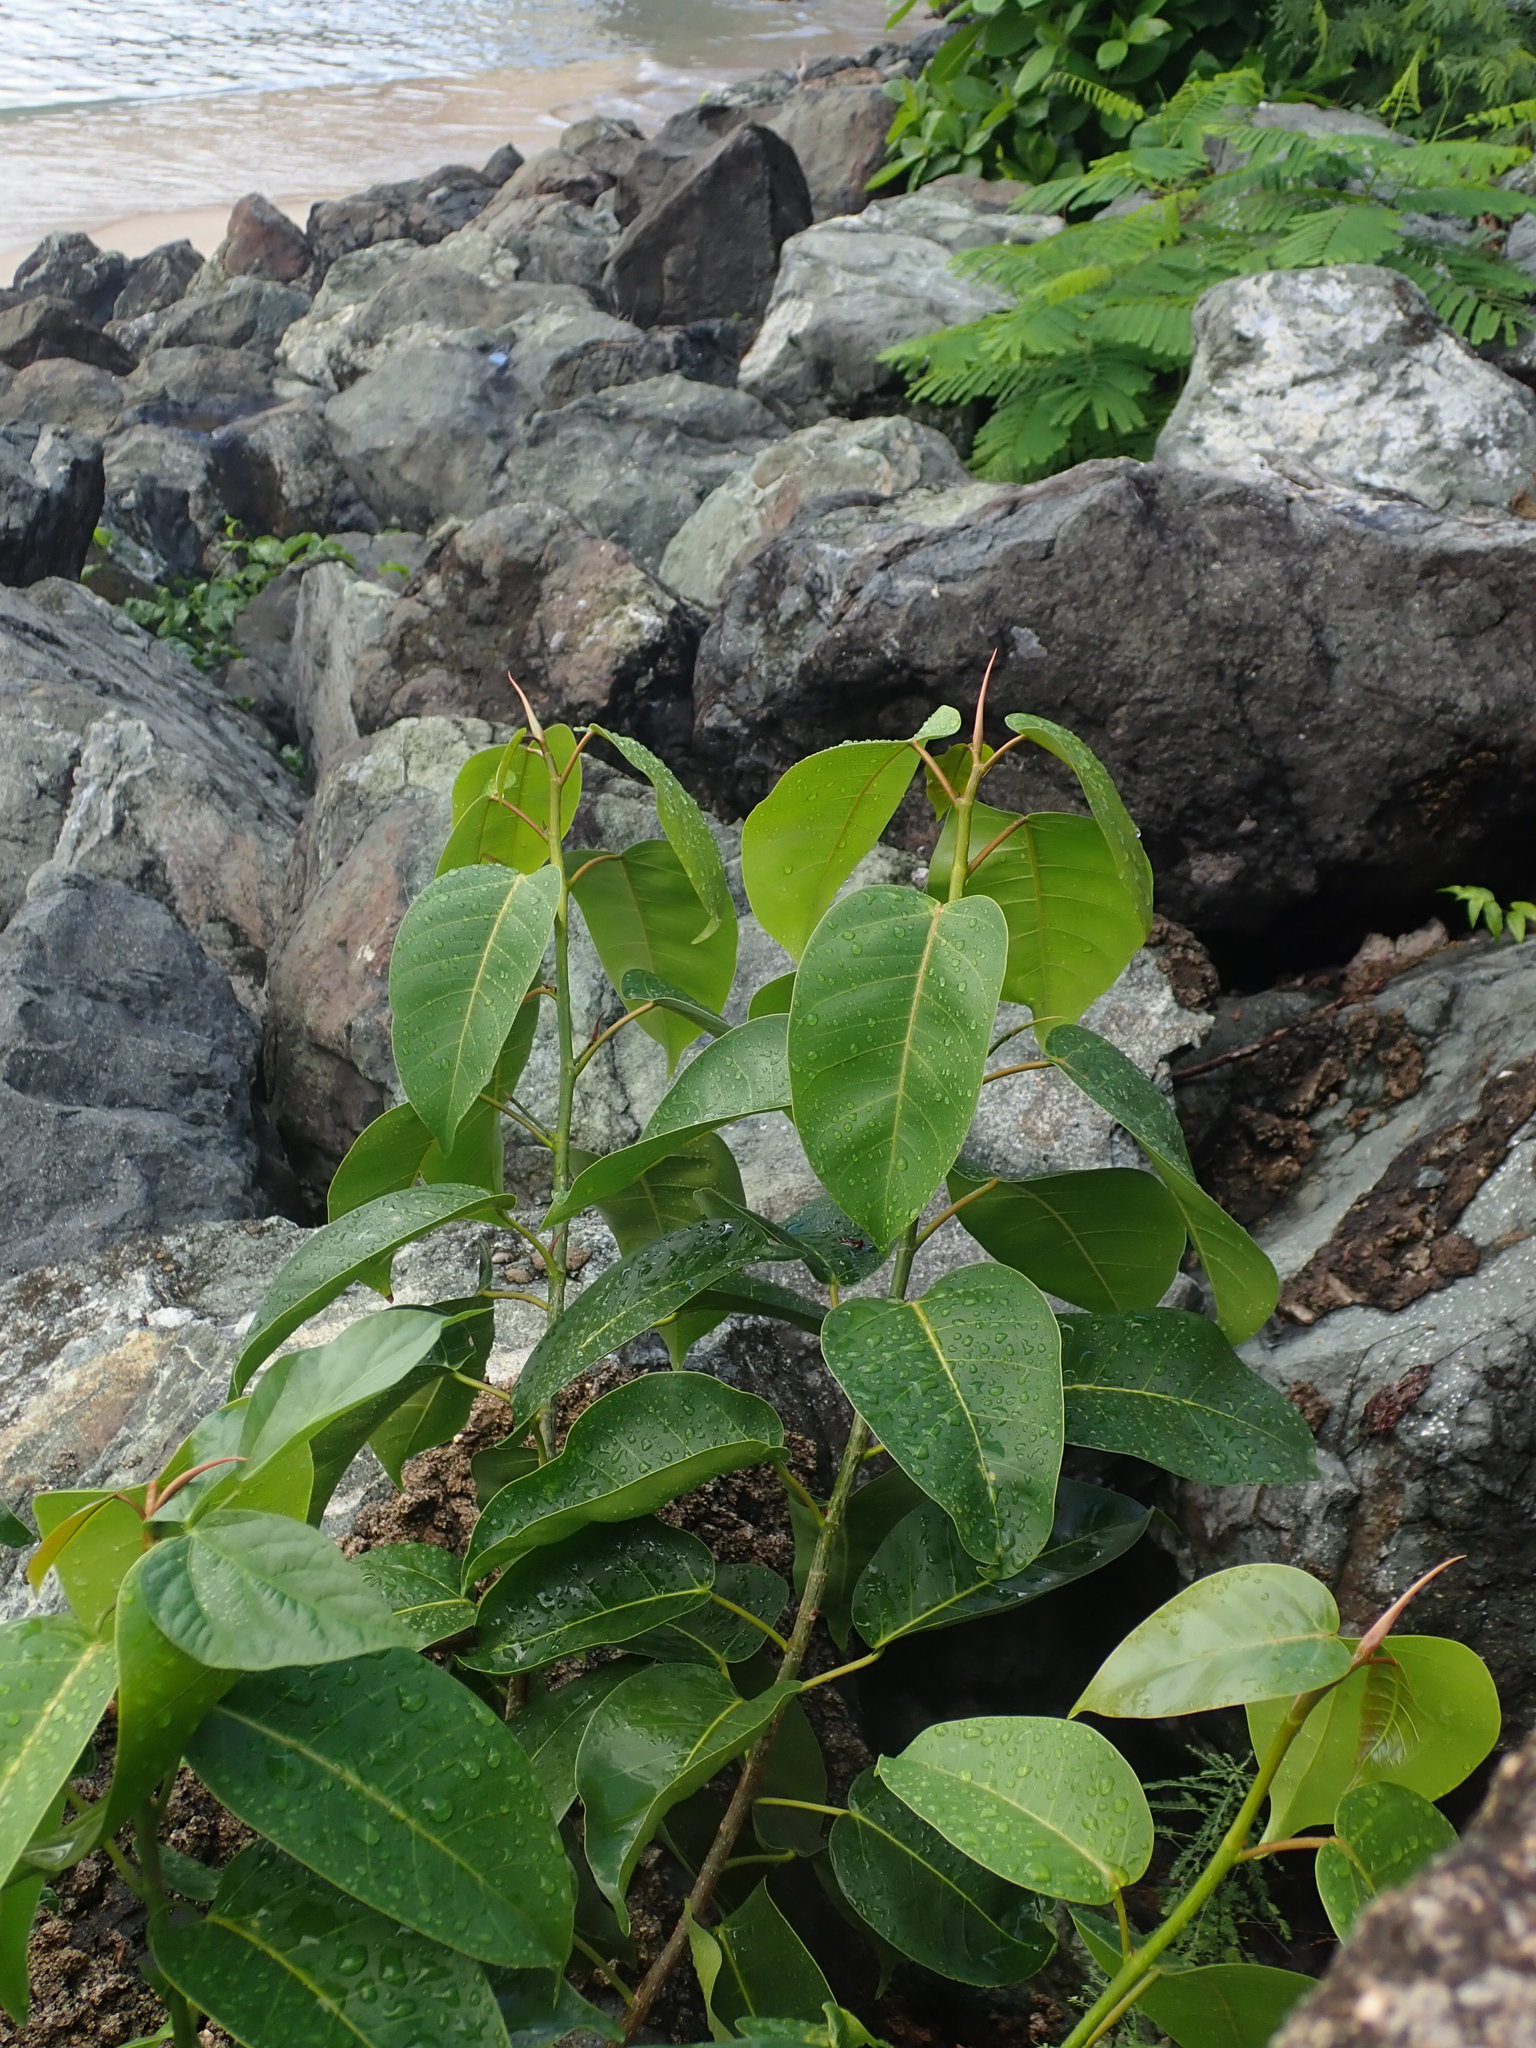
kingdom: Plantae
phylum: Tracheophyta
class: Magnoliopsida
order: Rosales
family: Moraceae
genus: Ficus
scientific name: Ficus citrifolia
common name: Strangler fig
